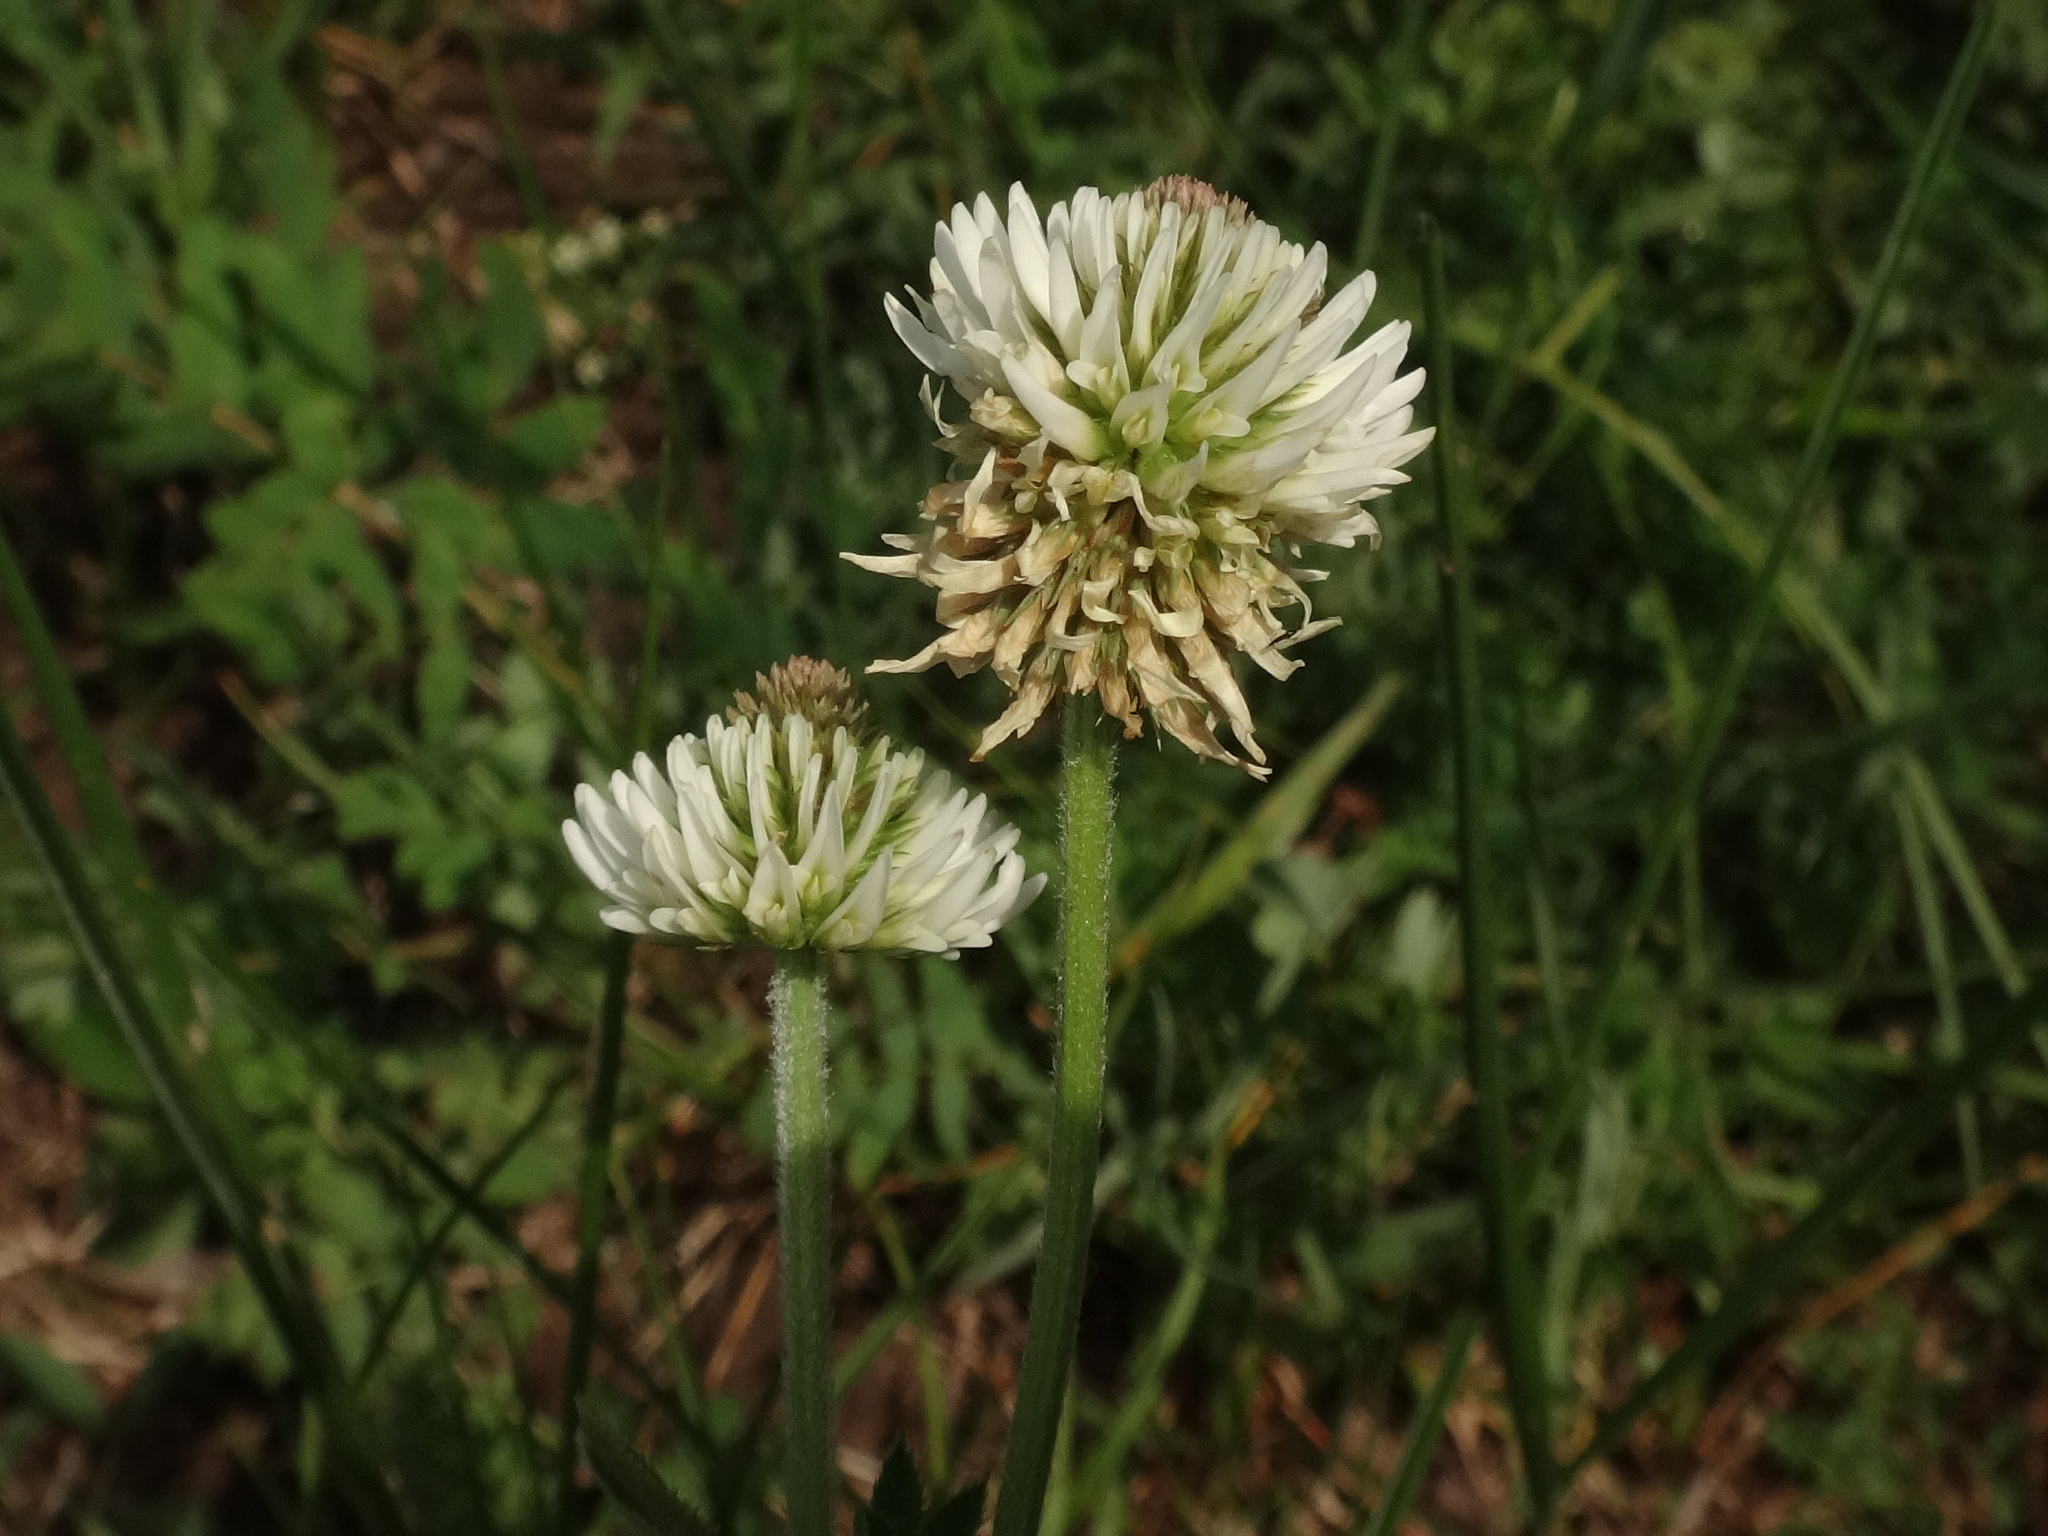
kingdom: Plantae
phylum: Tracheophyta
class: Magnoliopsida
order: Fabales
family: Fabaceae
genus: Trifolium
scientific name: Trifolium montanum
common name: Mountain clover
